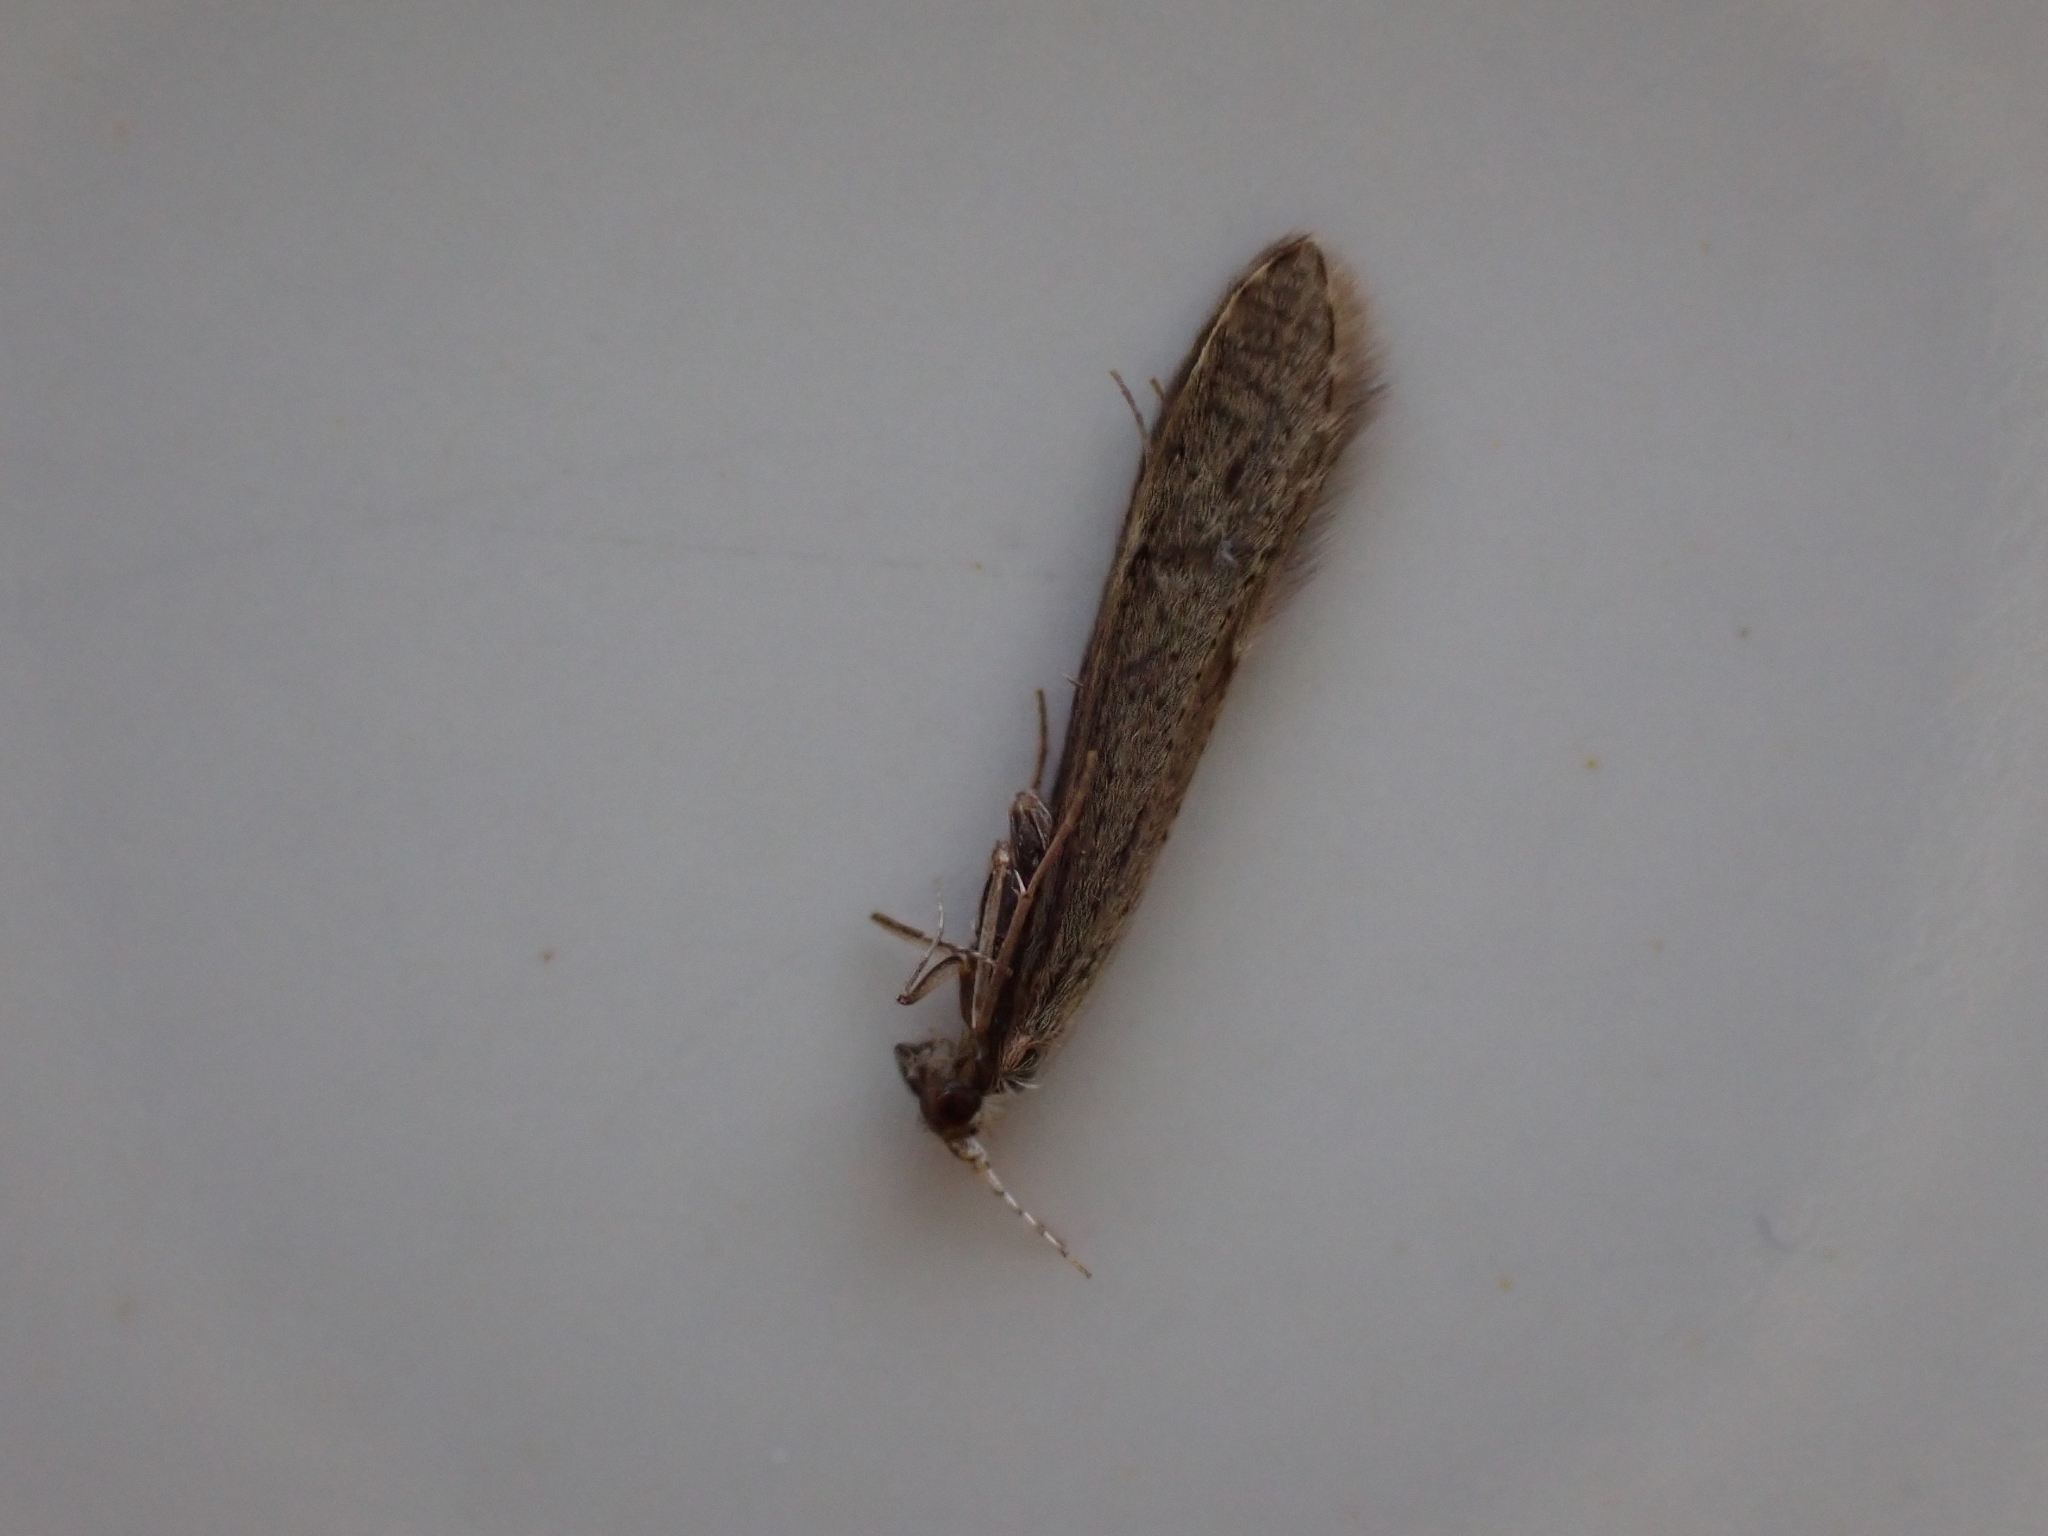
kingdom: Animalia
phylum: Arthropoda
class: Insecta
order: Trichoptera
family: Leptoceridae
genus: Leptocerus
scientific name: Leptocerus tineiformis
